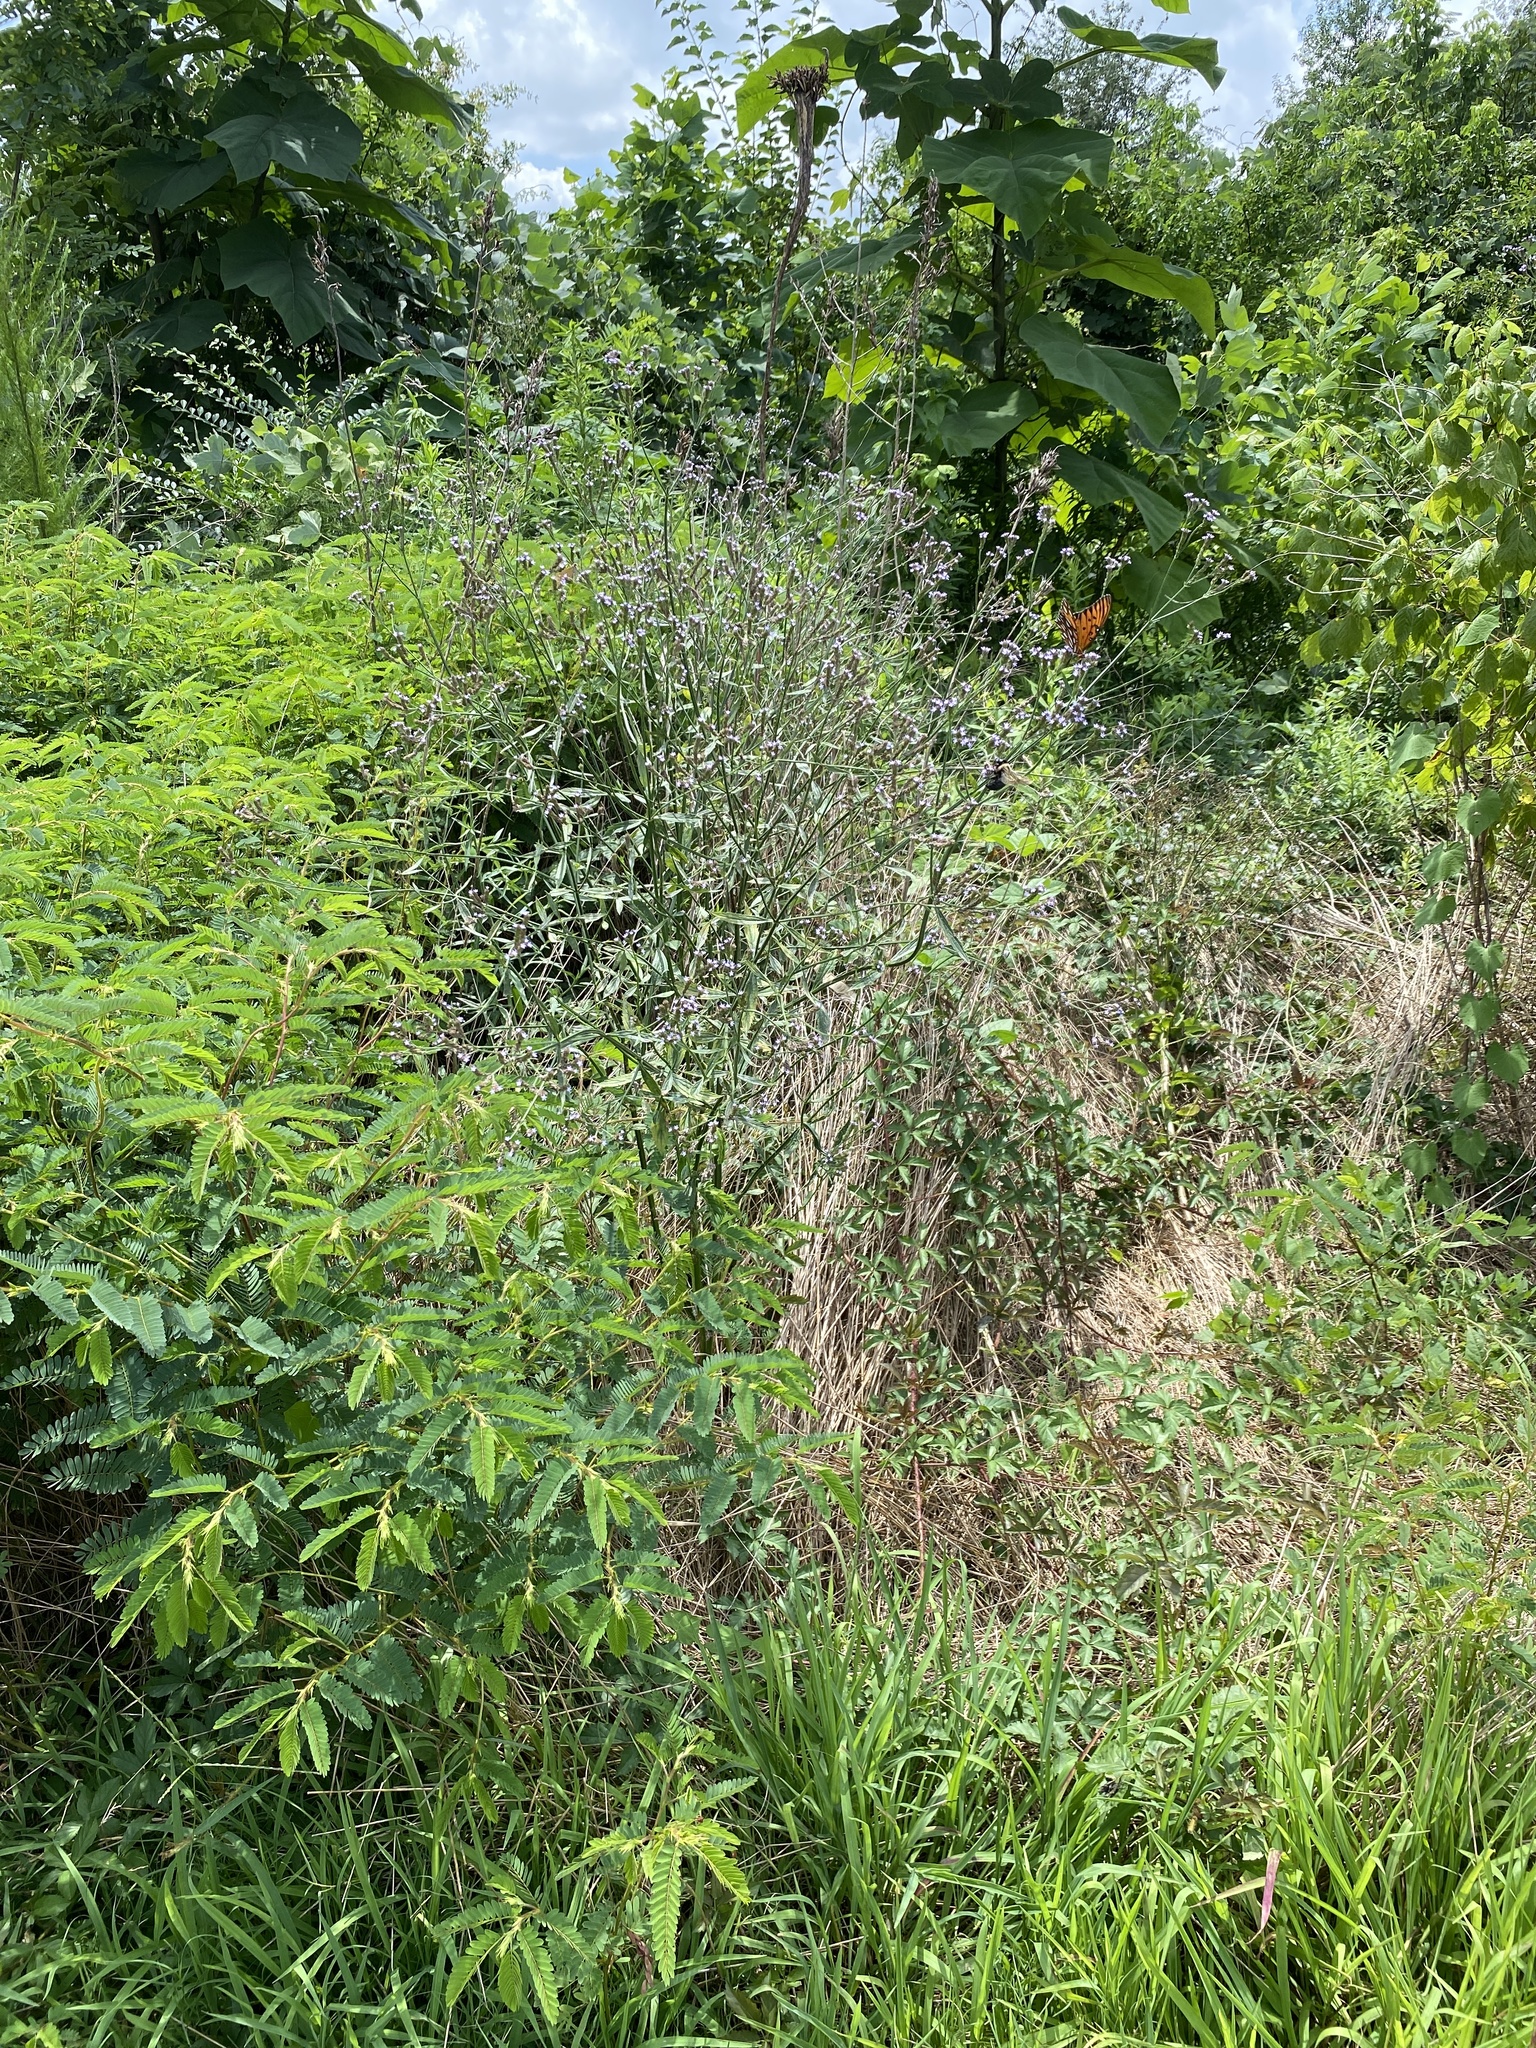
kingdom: Plantae
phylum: Tracheophyta
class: Magnoliopsida
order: Lamiales
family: Verbenaceae
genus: Verbena
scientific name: Verbena brasiliensis
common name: Brazilian vervain
